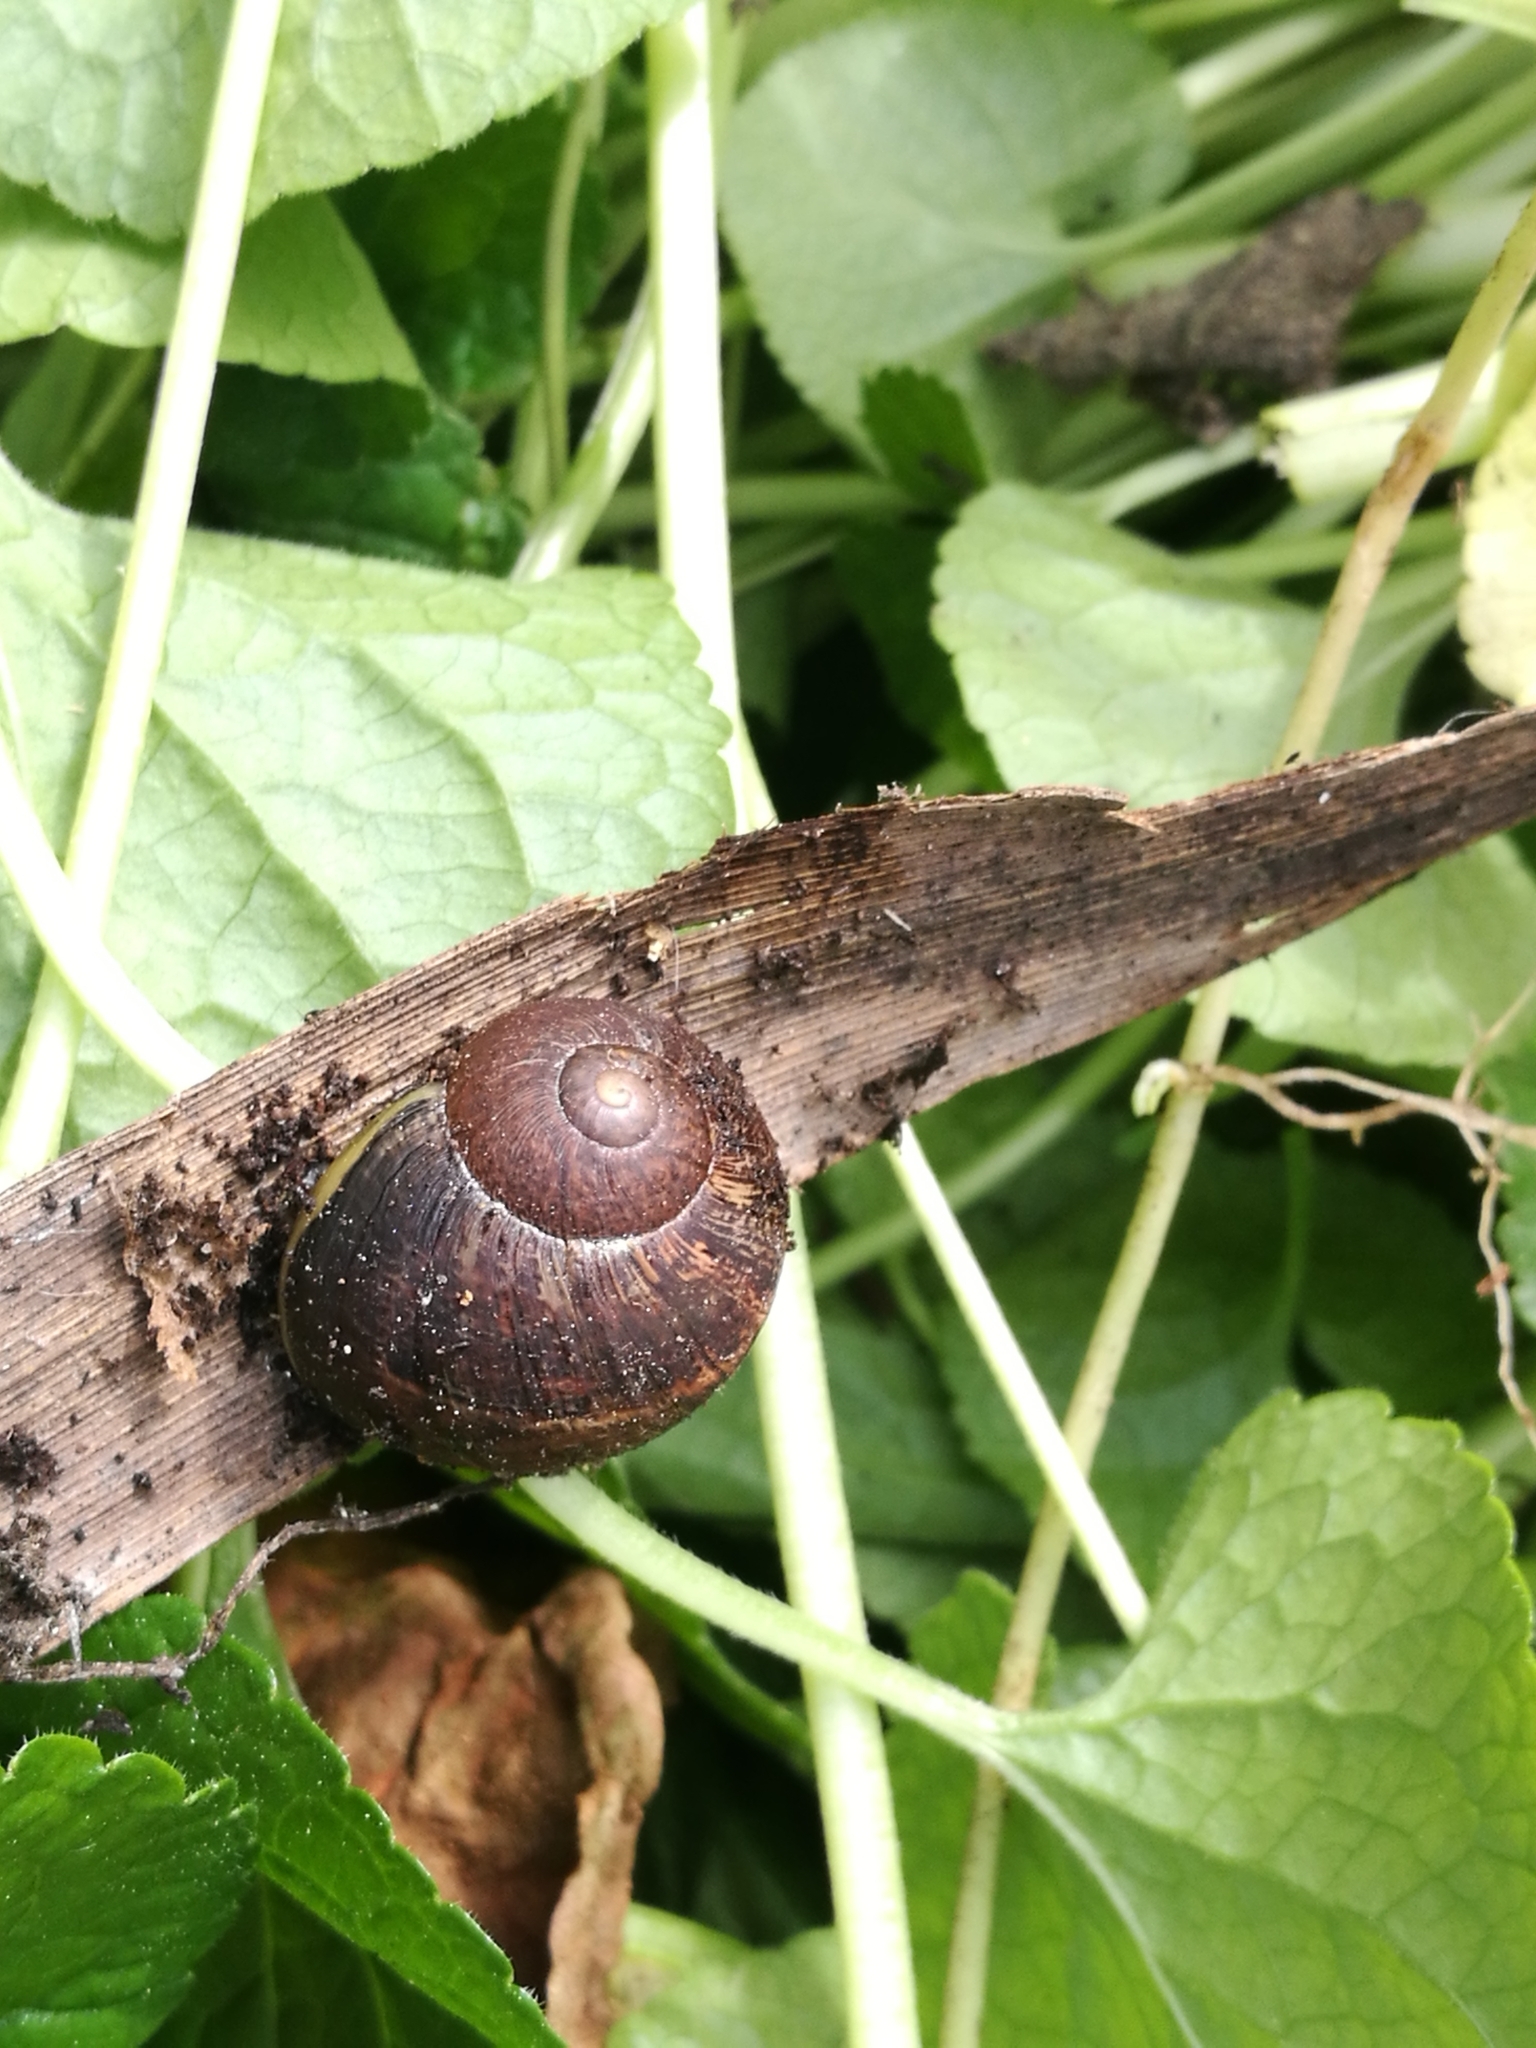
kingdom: Animalia
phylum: Mollusca
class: Gastropoda
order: Stylommatophora
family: Helicidae
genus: Cornu
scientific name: Cornu aspersum
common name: Brown garden snail
